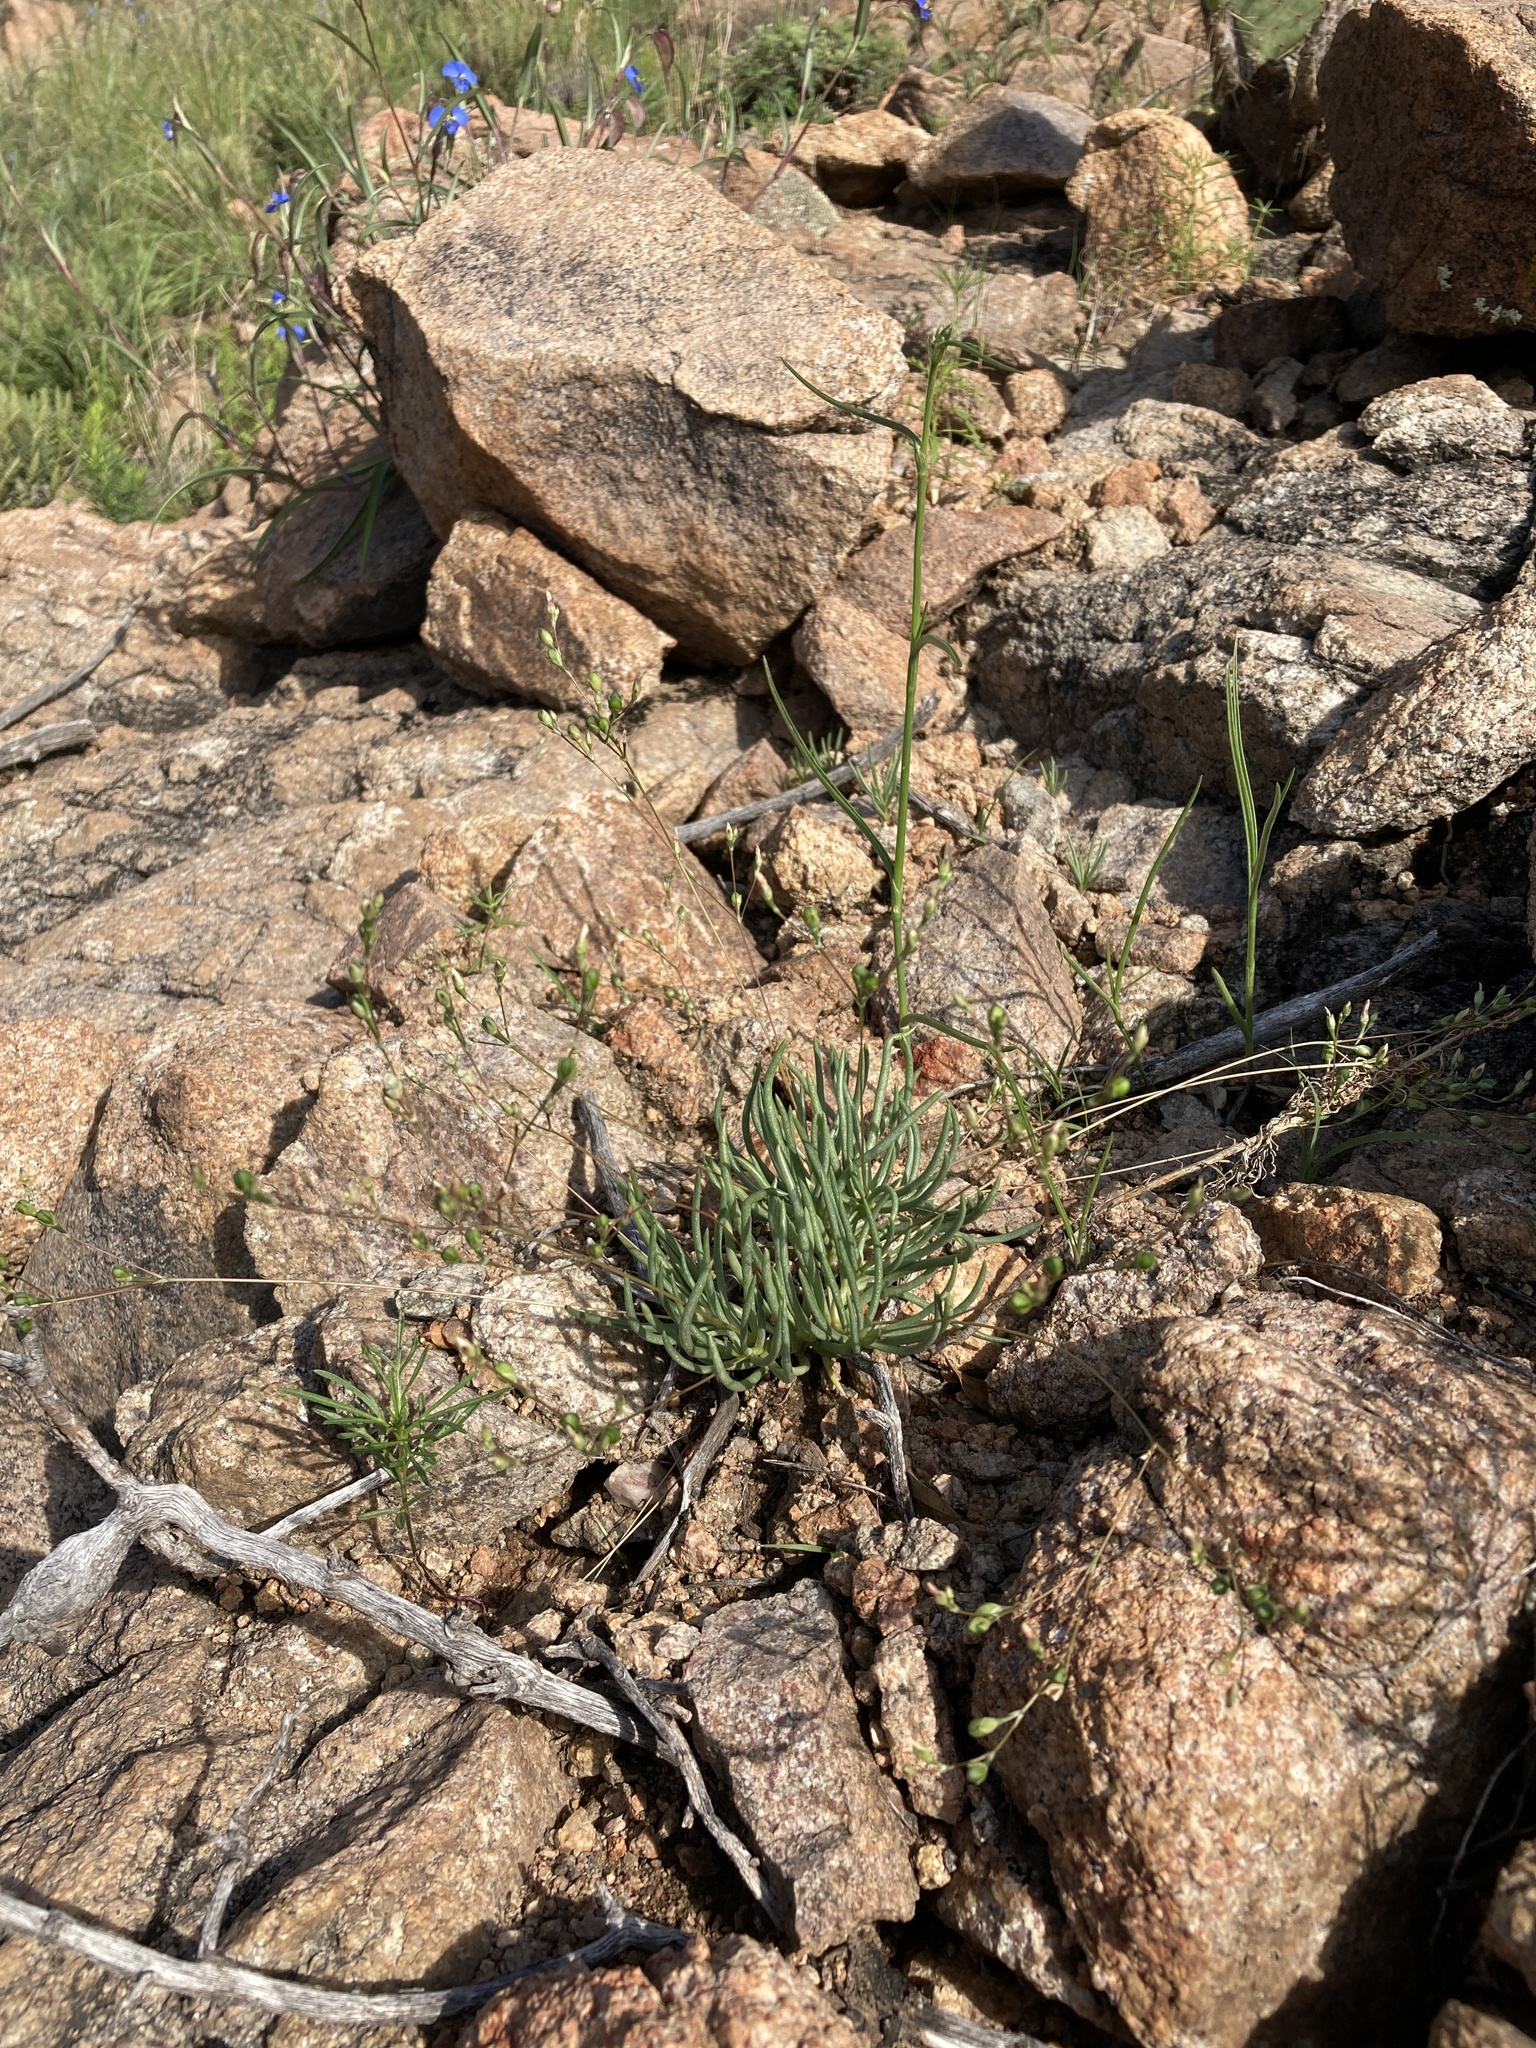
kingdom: Plantae
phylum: Tracheophyta
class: Magnoliopsida
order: Caryophyllales
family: Montiaceae
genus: Phemeranthus
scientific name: Phemeranthus confertiflorus
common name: New mexico fameflower
